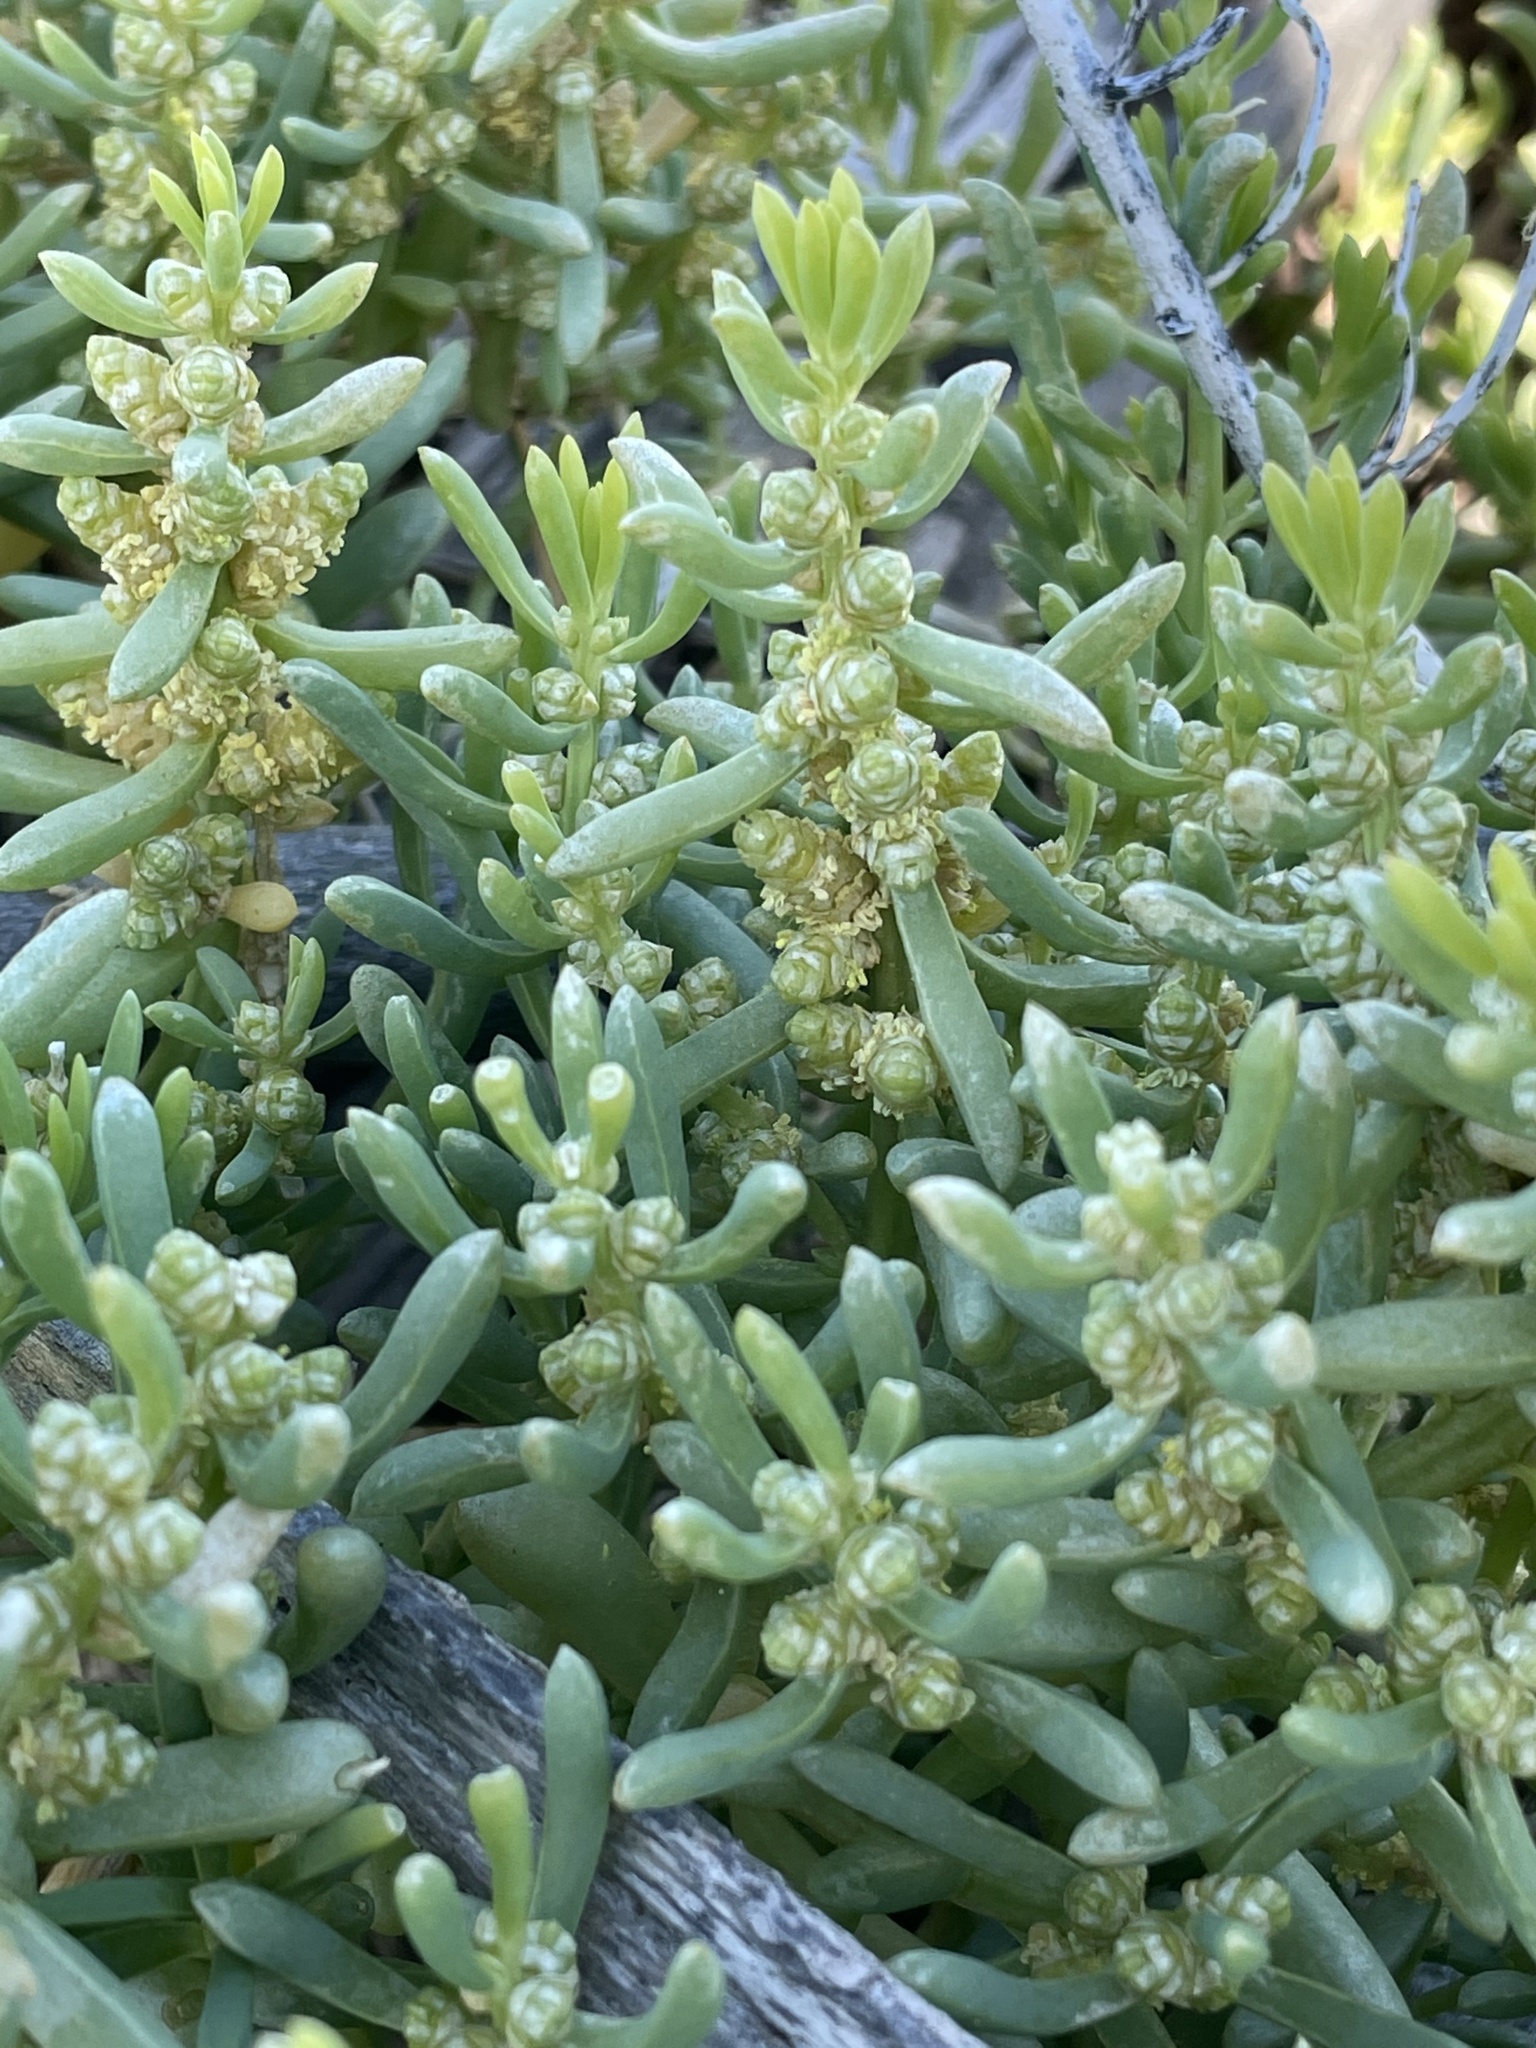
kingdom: Plantae
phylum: Tracheophyta
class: Magnoliopsida
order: Brassicales
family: Bataceae
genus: Batis
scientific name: Batis maritima
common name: Turtleweed
